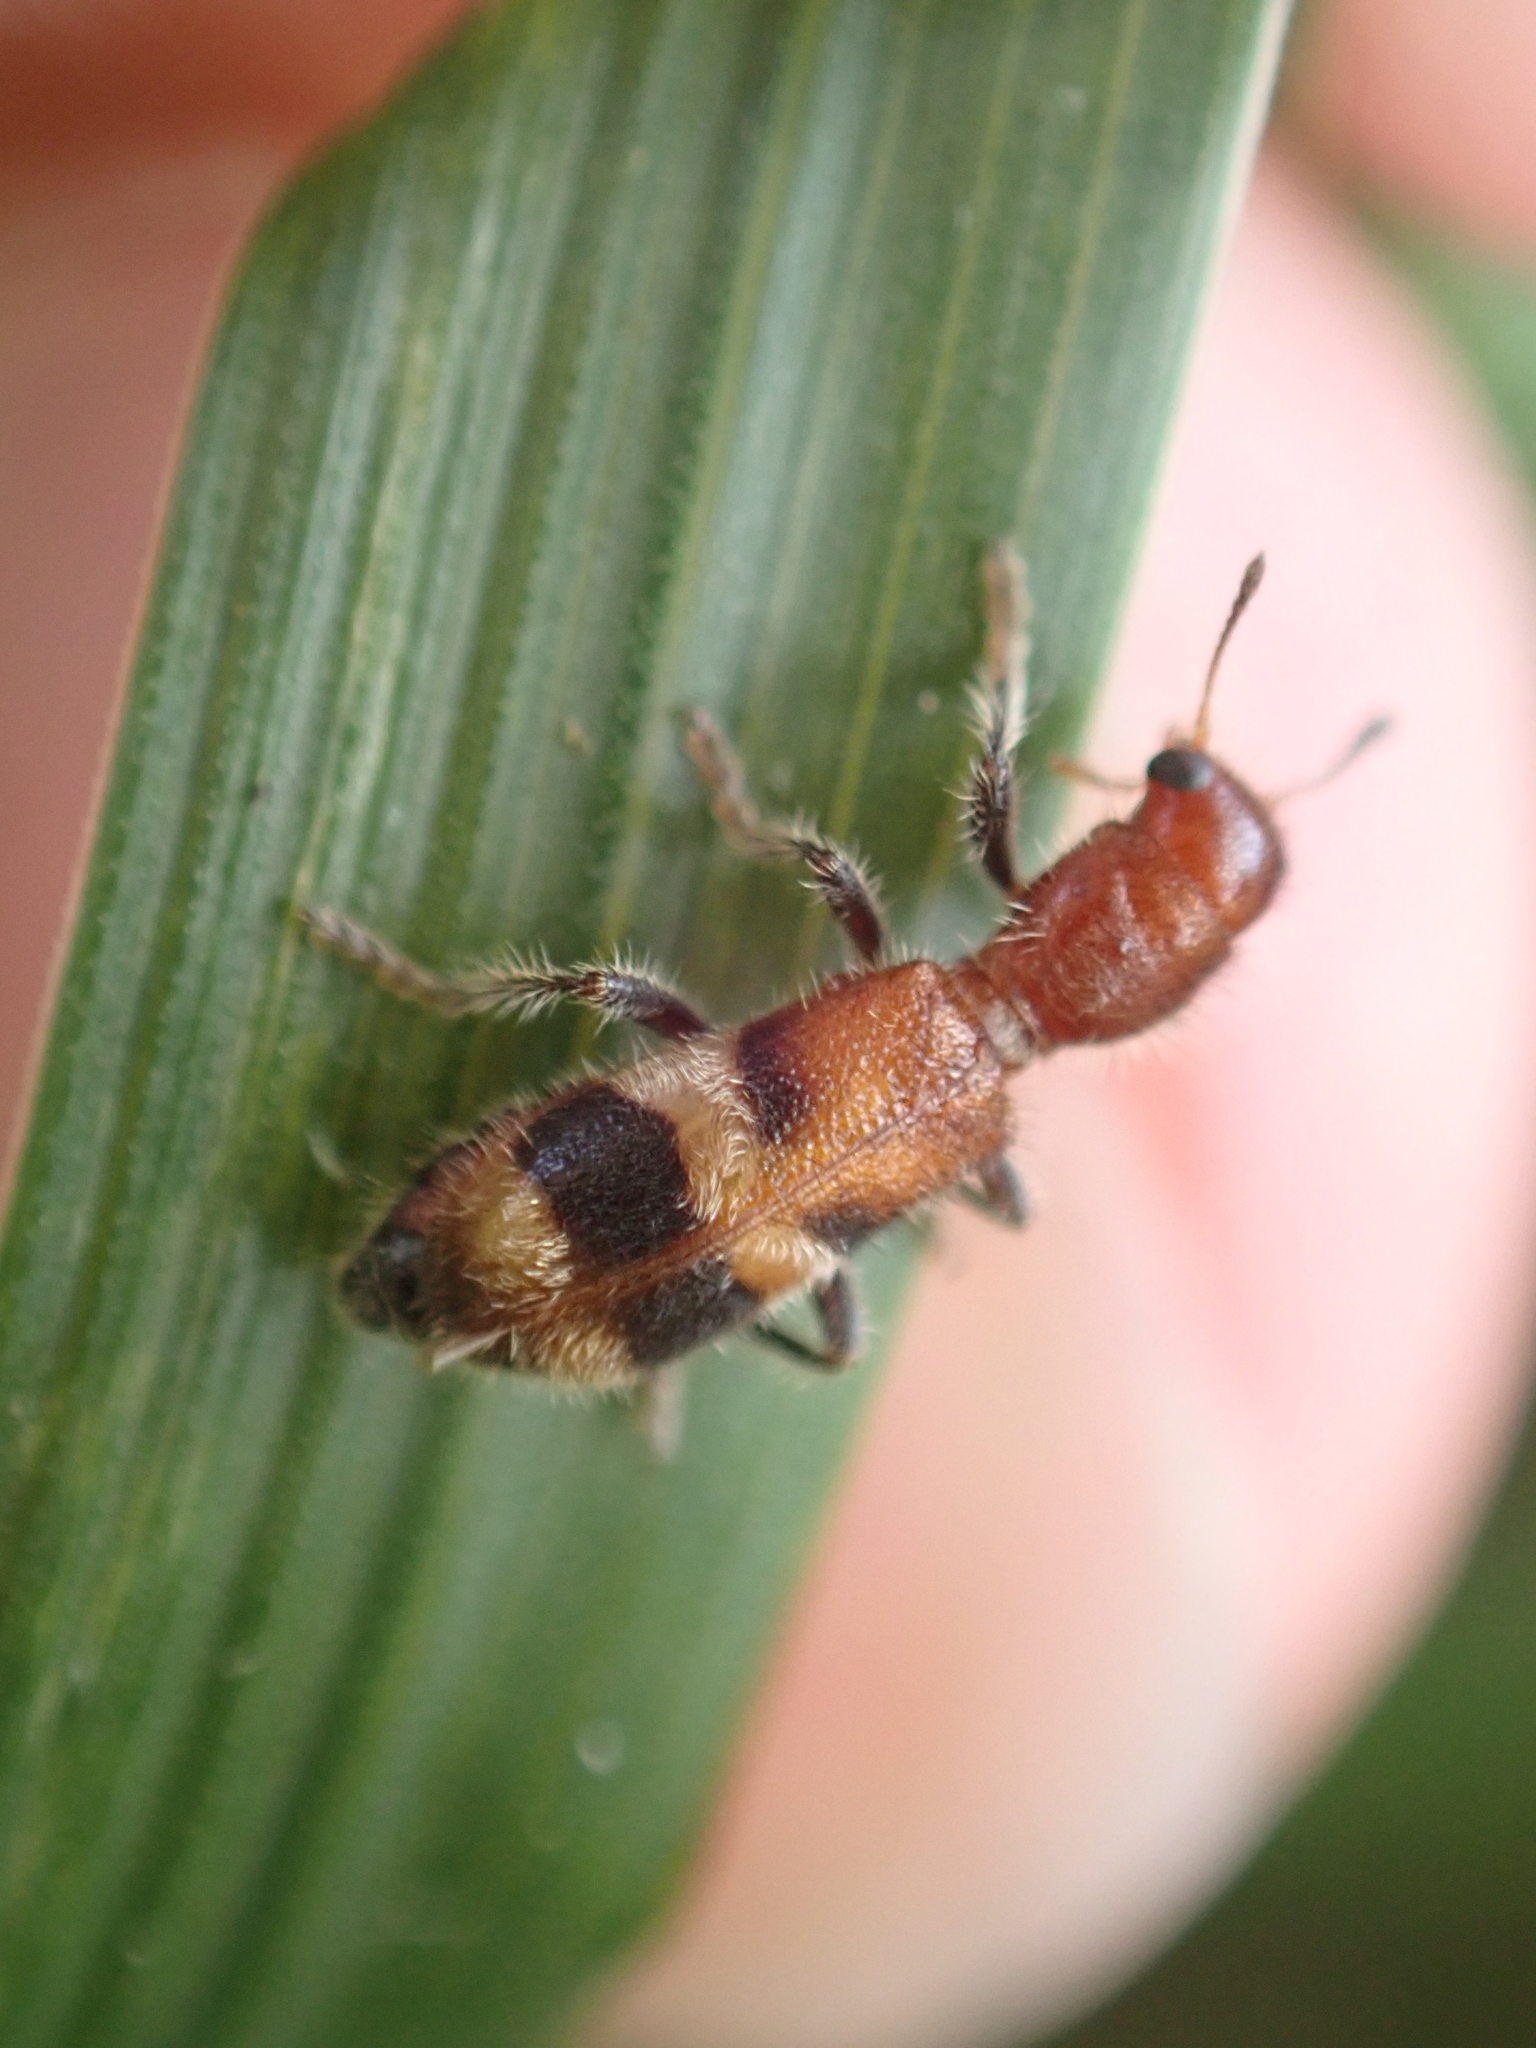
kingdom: Animalia
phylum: Arthropoda
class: Insecta
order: Coleoptera
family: Cleridae
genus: Enoclerus
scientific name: Enoclerus rosmarus
